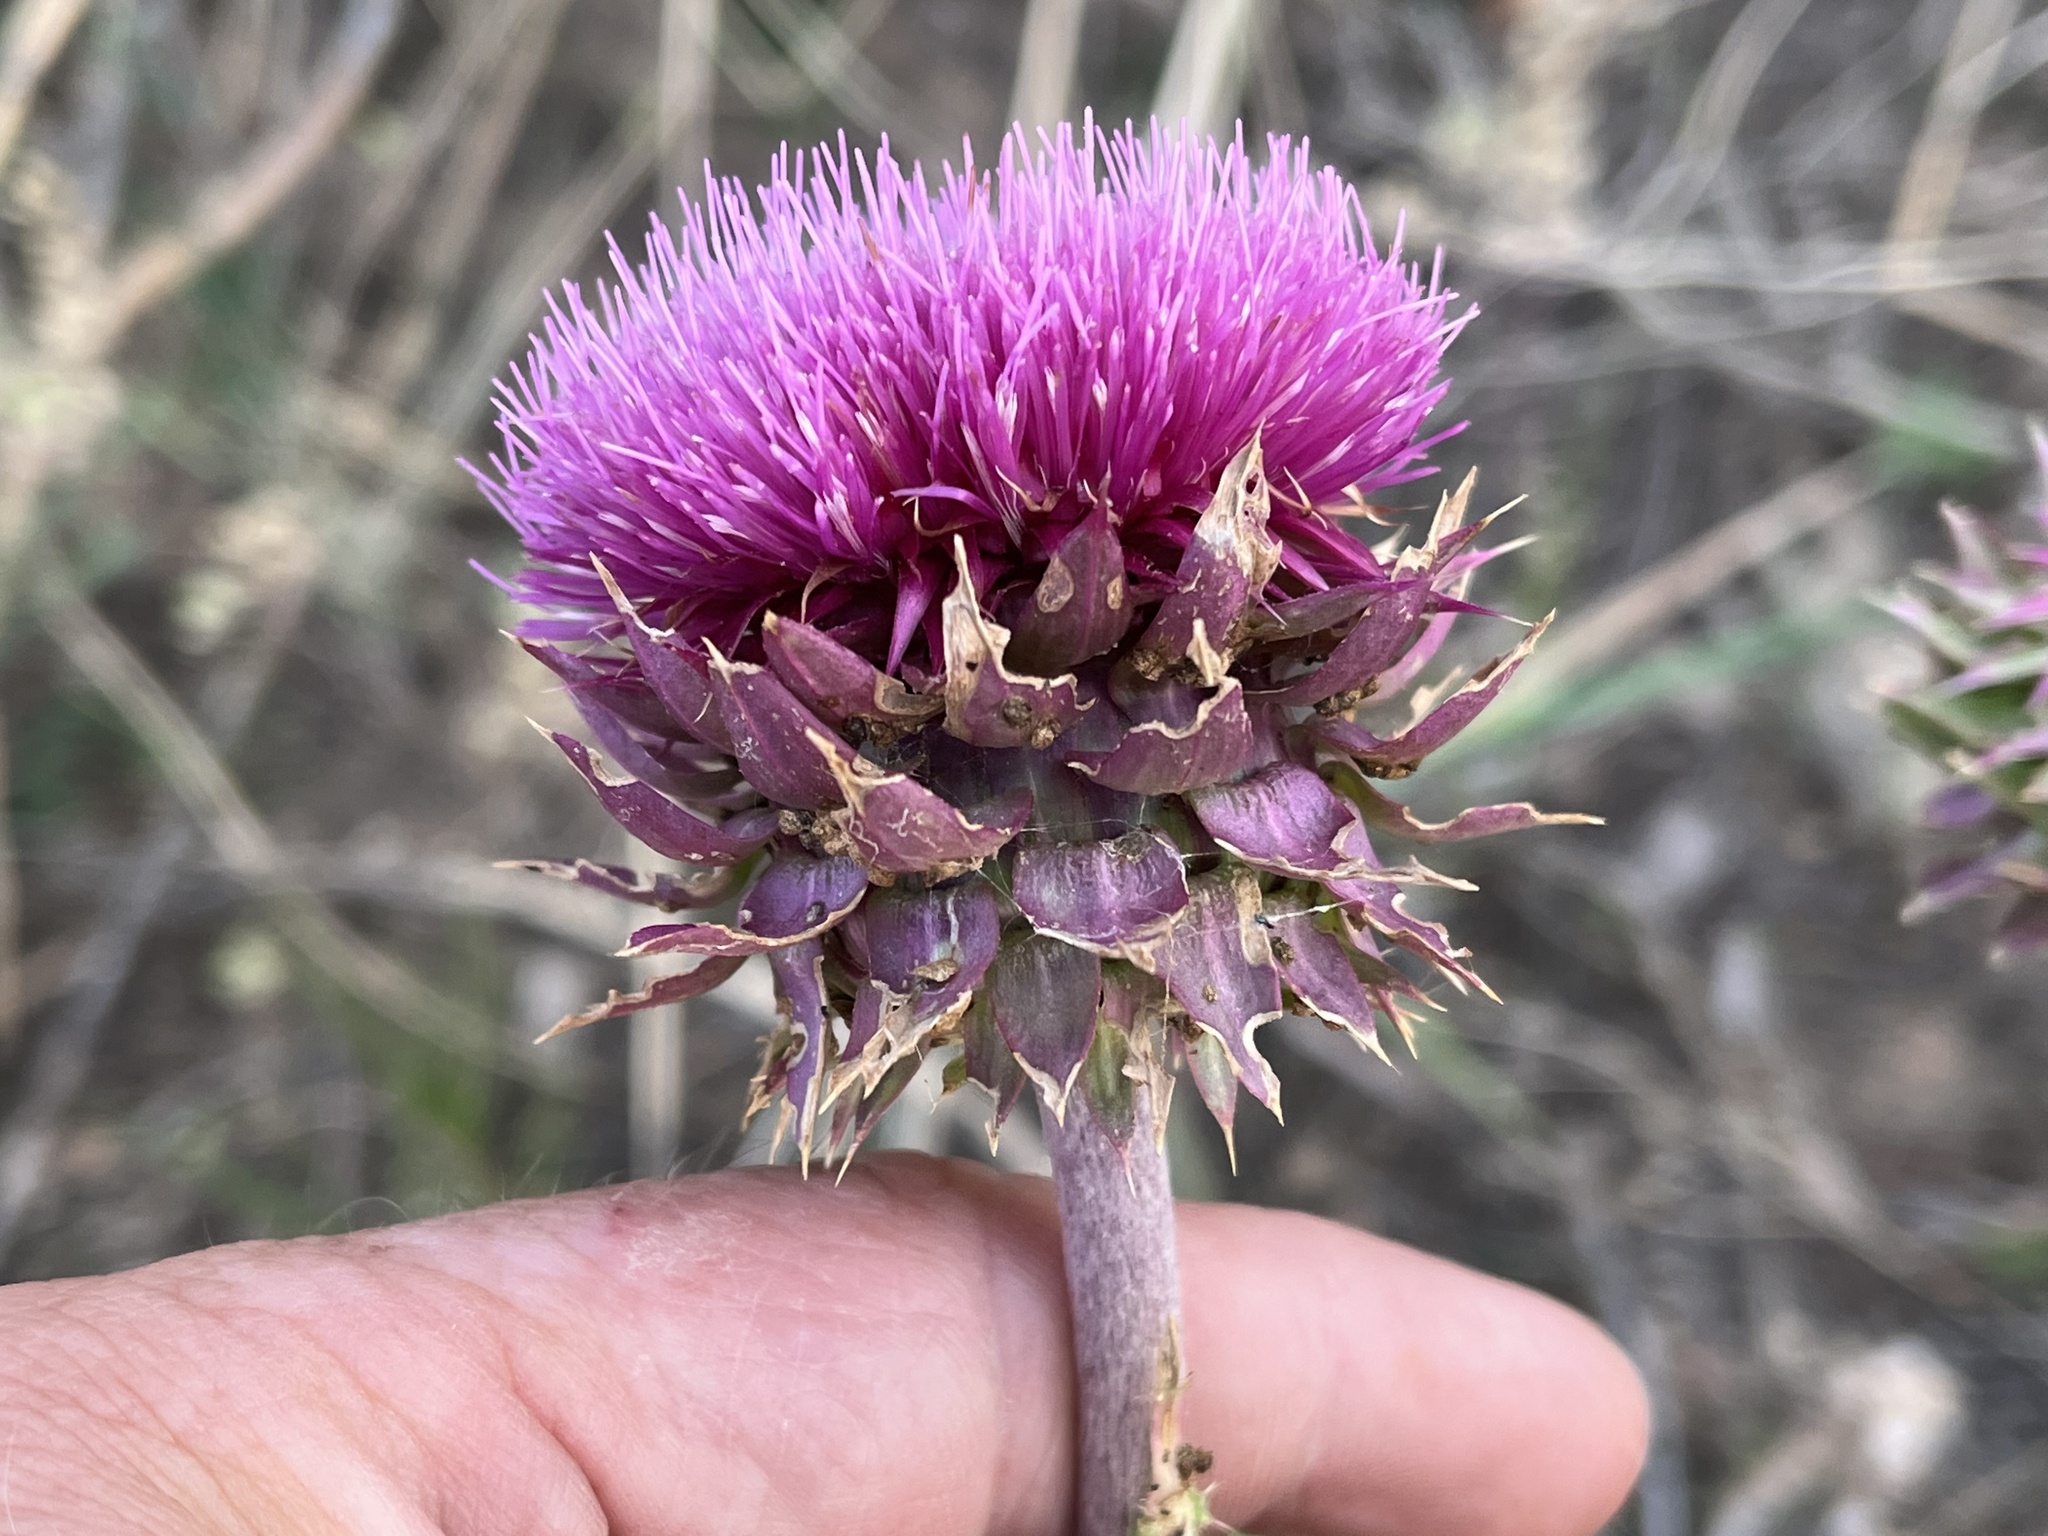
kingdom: Plantae
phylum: Tracheophyta
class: Magnoliopsida
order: Asterales
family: Asteraceae
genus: Carduus
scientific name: Carduus nutans
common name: Musk thistle
